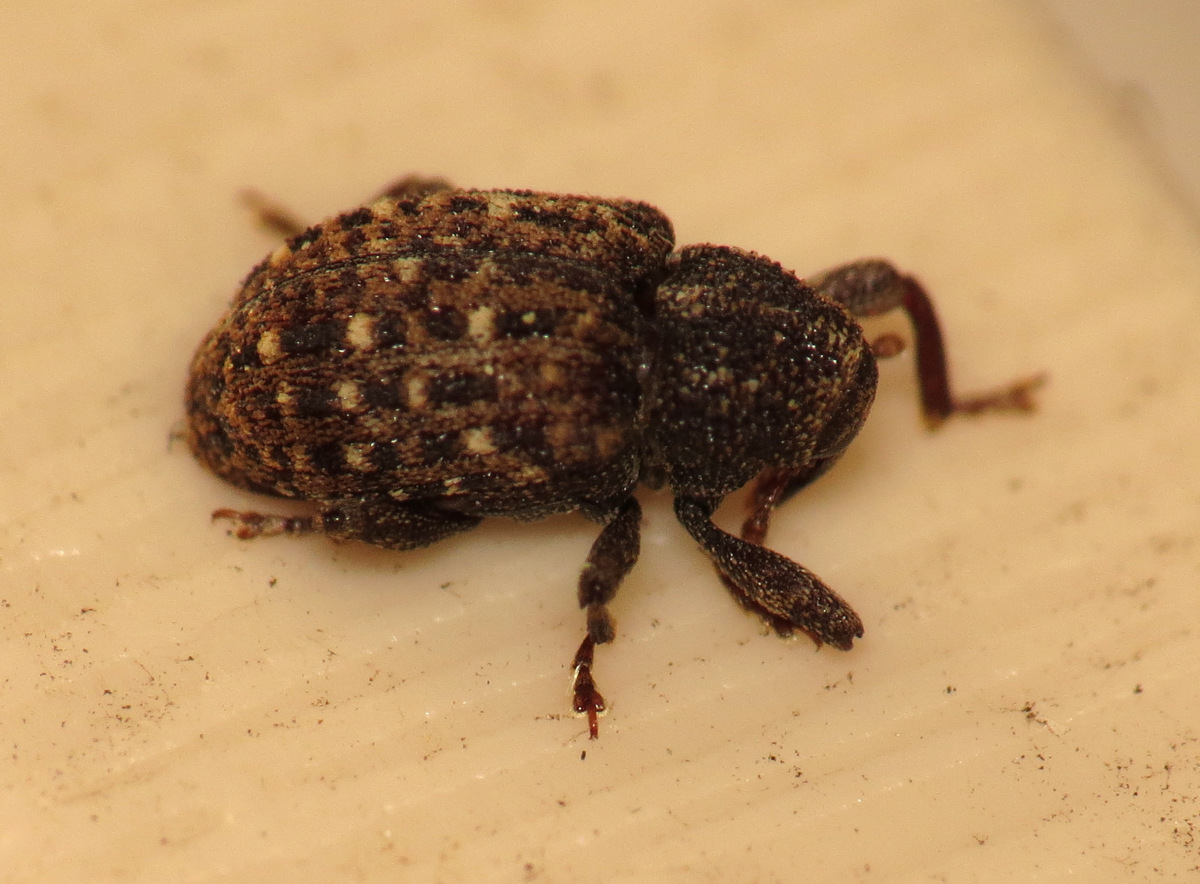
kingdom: Animalia
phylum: Arthropoda
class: Insecta
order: Coleoptera
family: Curculionidae
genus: Apteromechus
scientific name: Apteromechus ferratus
